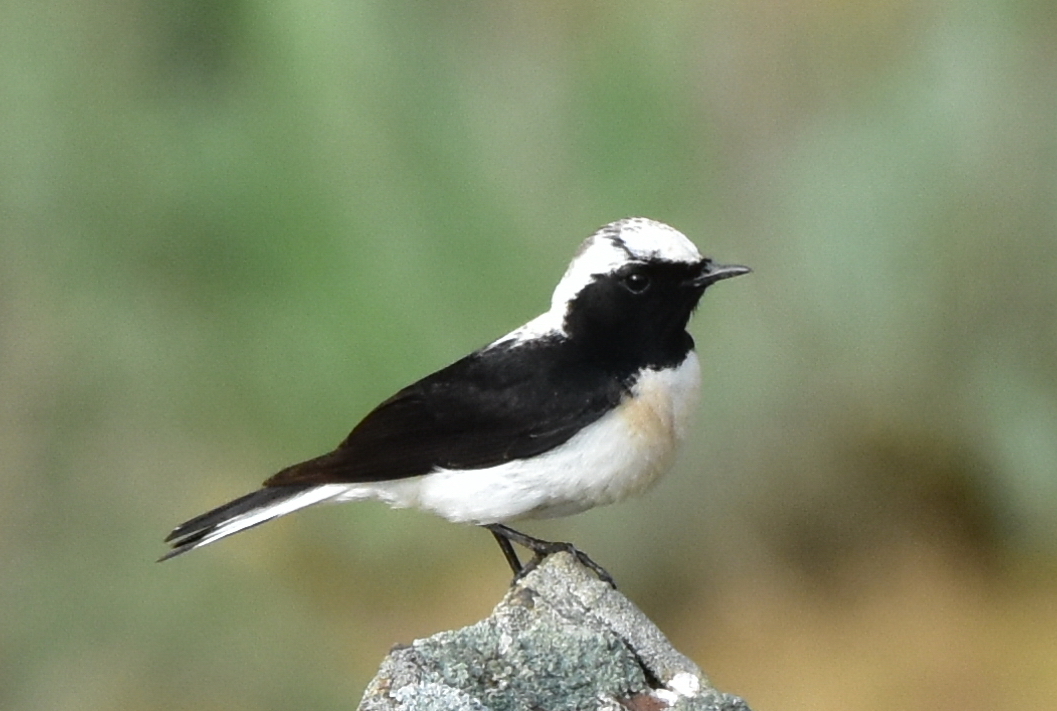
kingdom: Animalia
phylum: Chordata
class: Aves
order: Passeriformes
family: Muscicapidae
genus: Oenanthe
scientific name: Oenanthe
